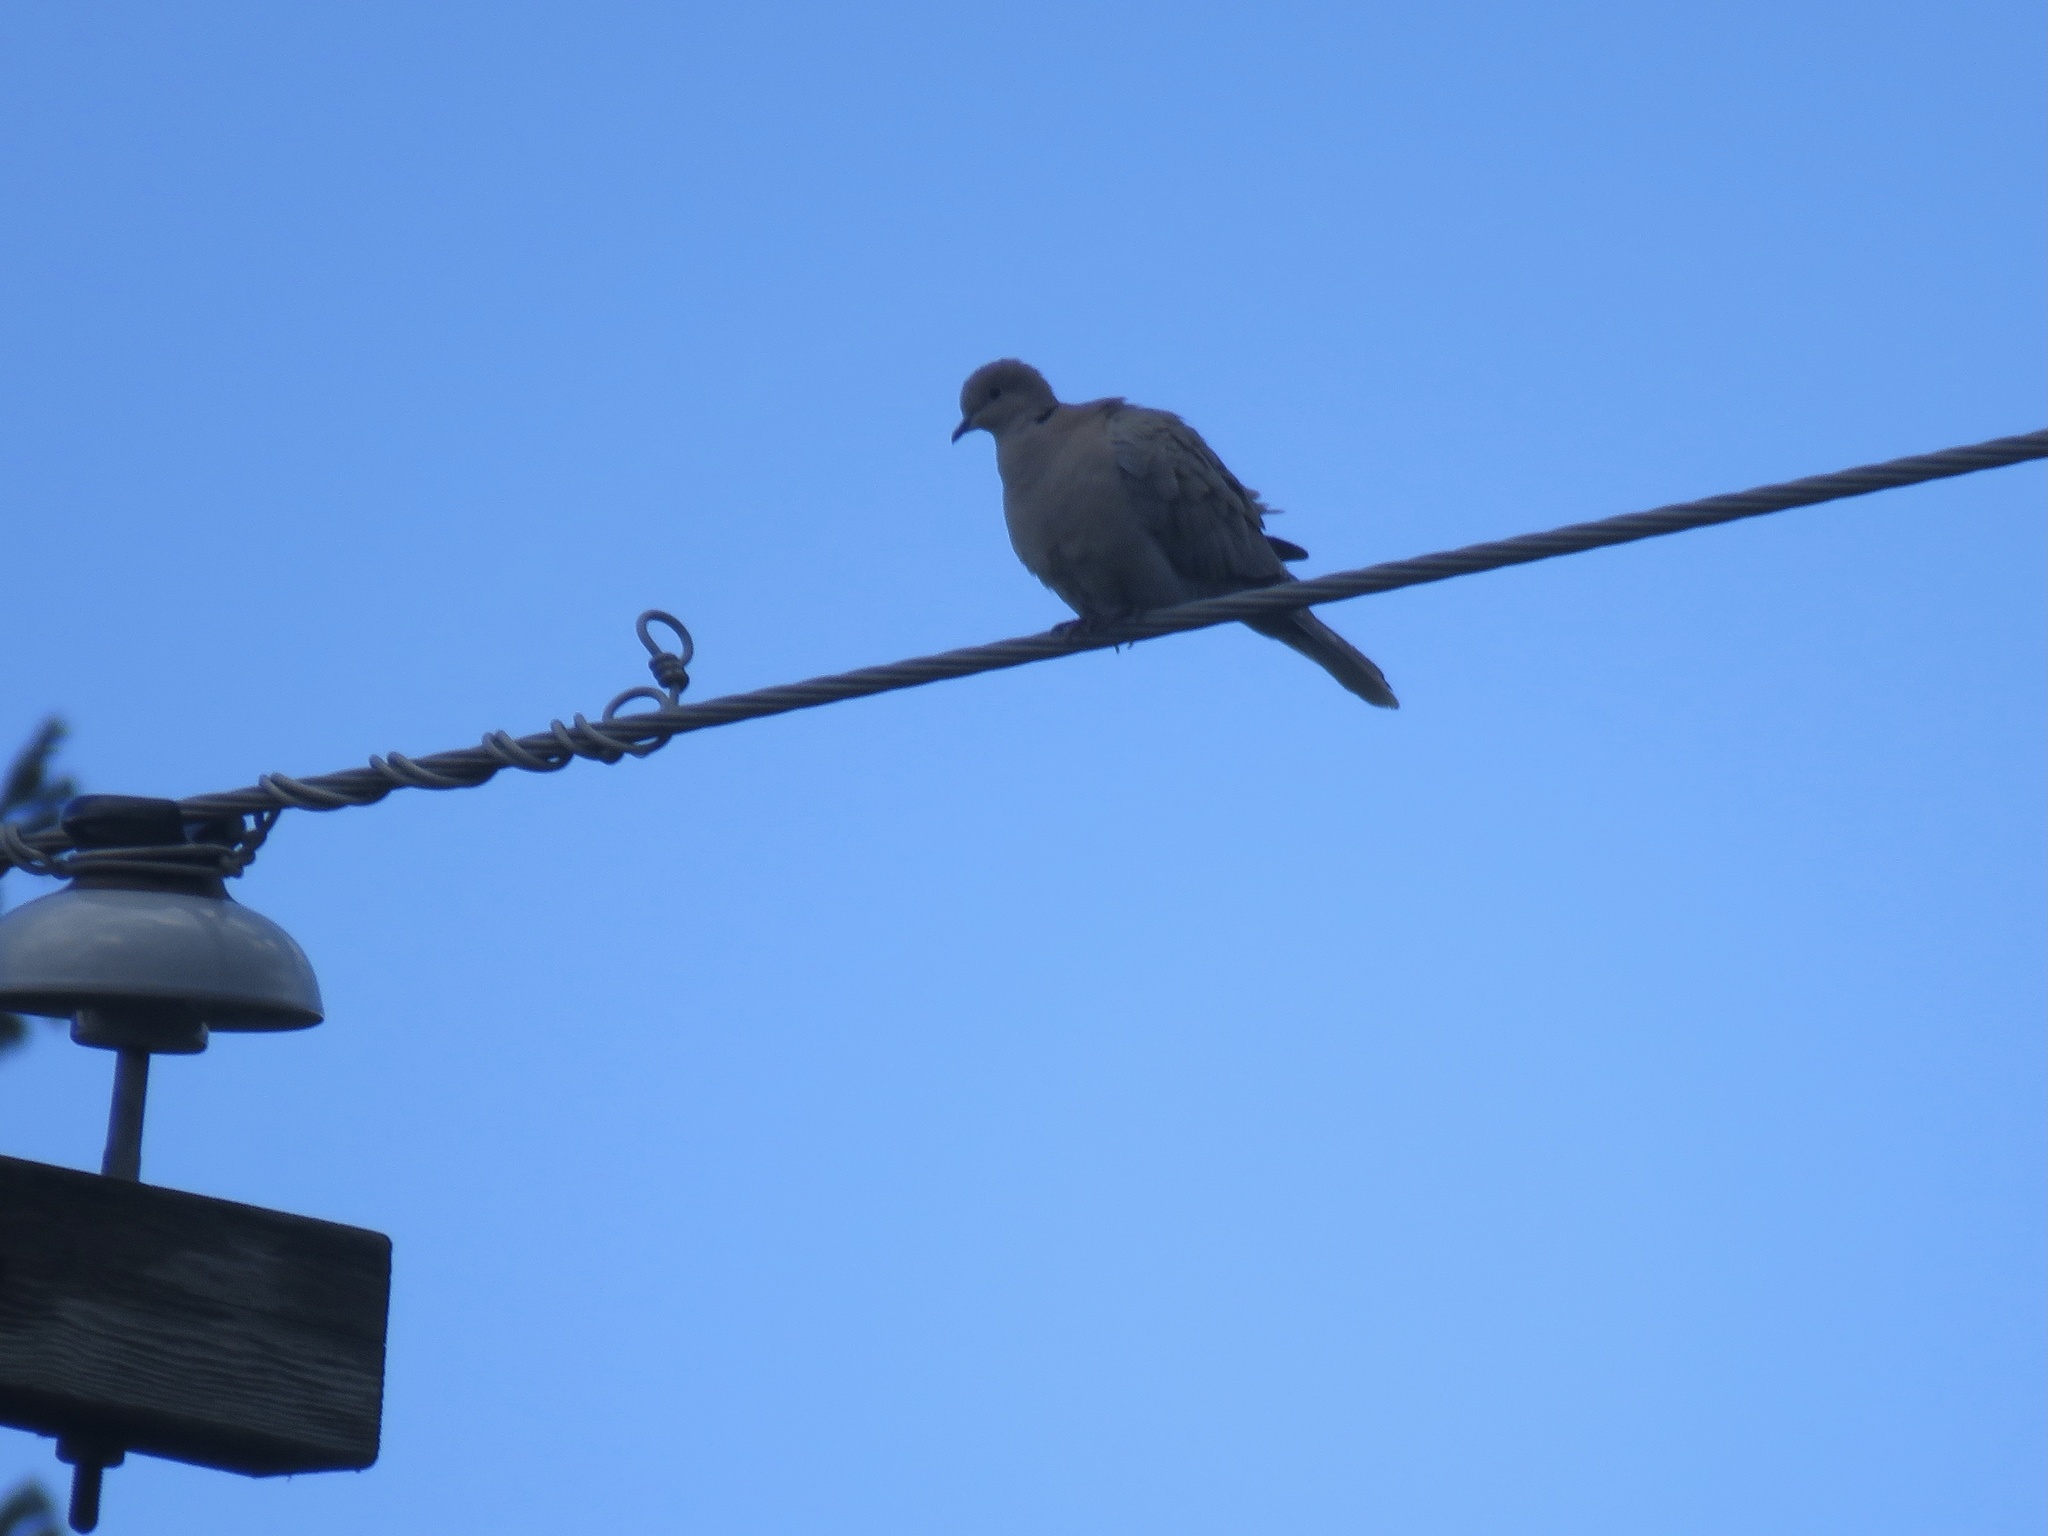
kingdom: Animalia
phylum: Chordata
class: Aves
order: Columbiformes
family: Columbidae
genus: Streptopelia
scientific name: Streptopelia decaocto
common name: Eurasian collared dove
